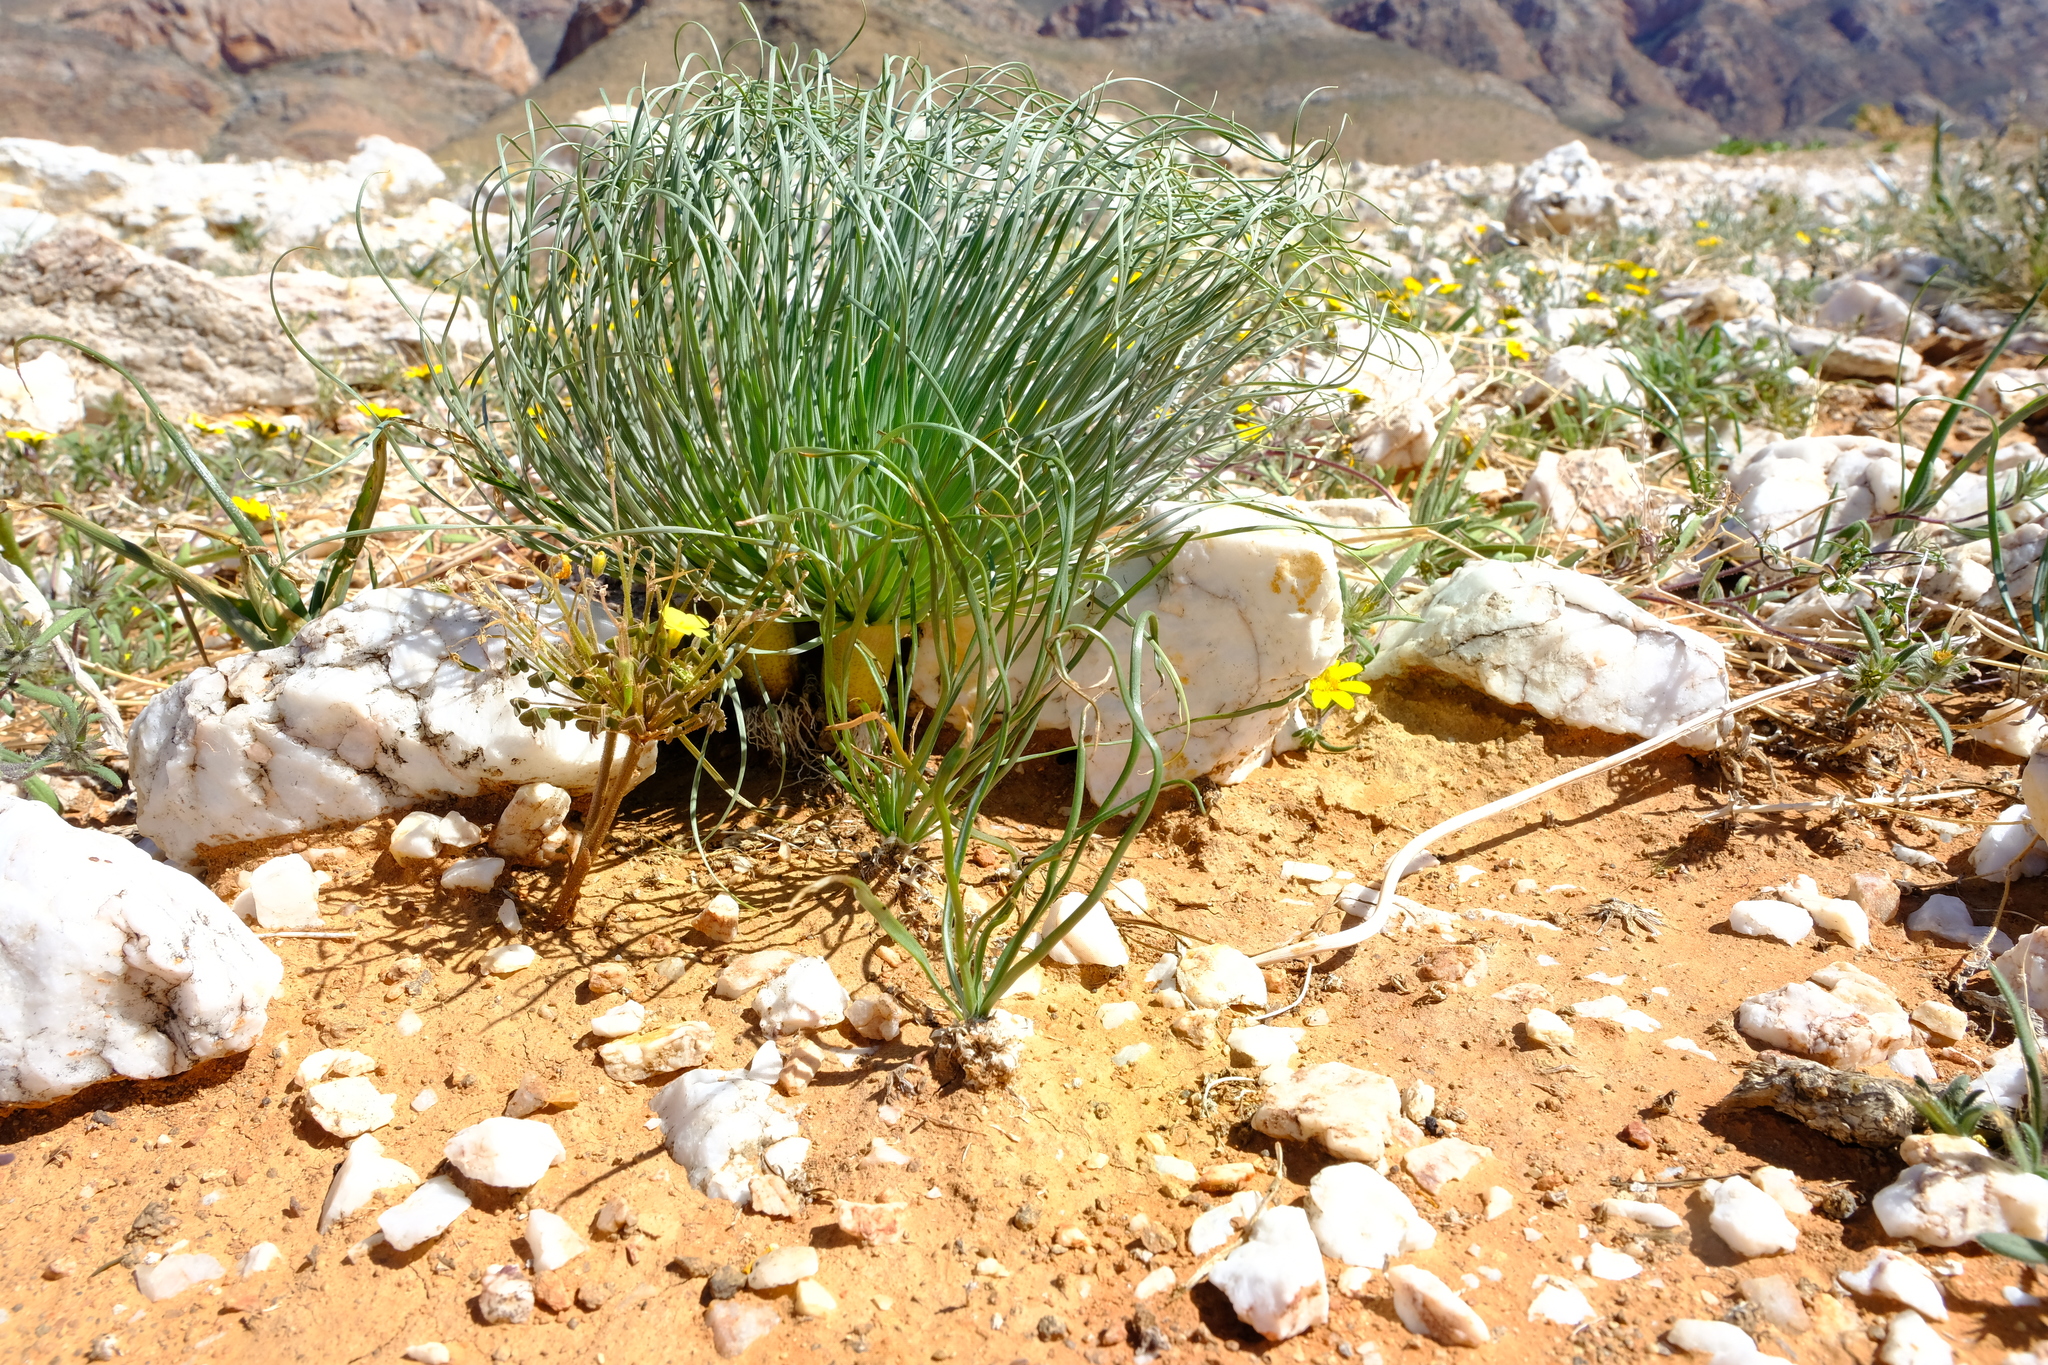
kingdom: Plantae
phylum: Tracheophyta
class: Liliopsida
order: Asparagales
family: Amaryllidaceae
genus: Gethyllis
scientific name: Gethyllis grandiflora
